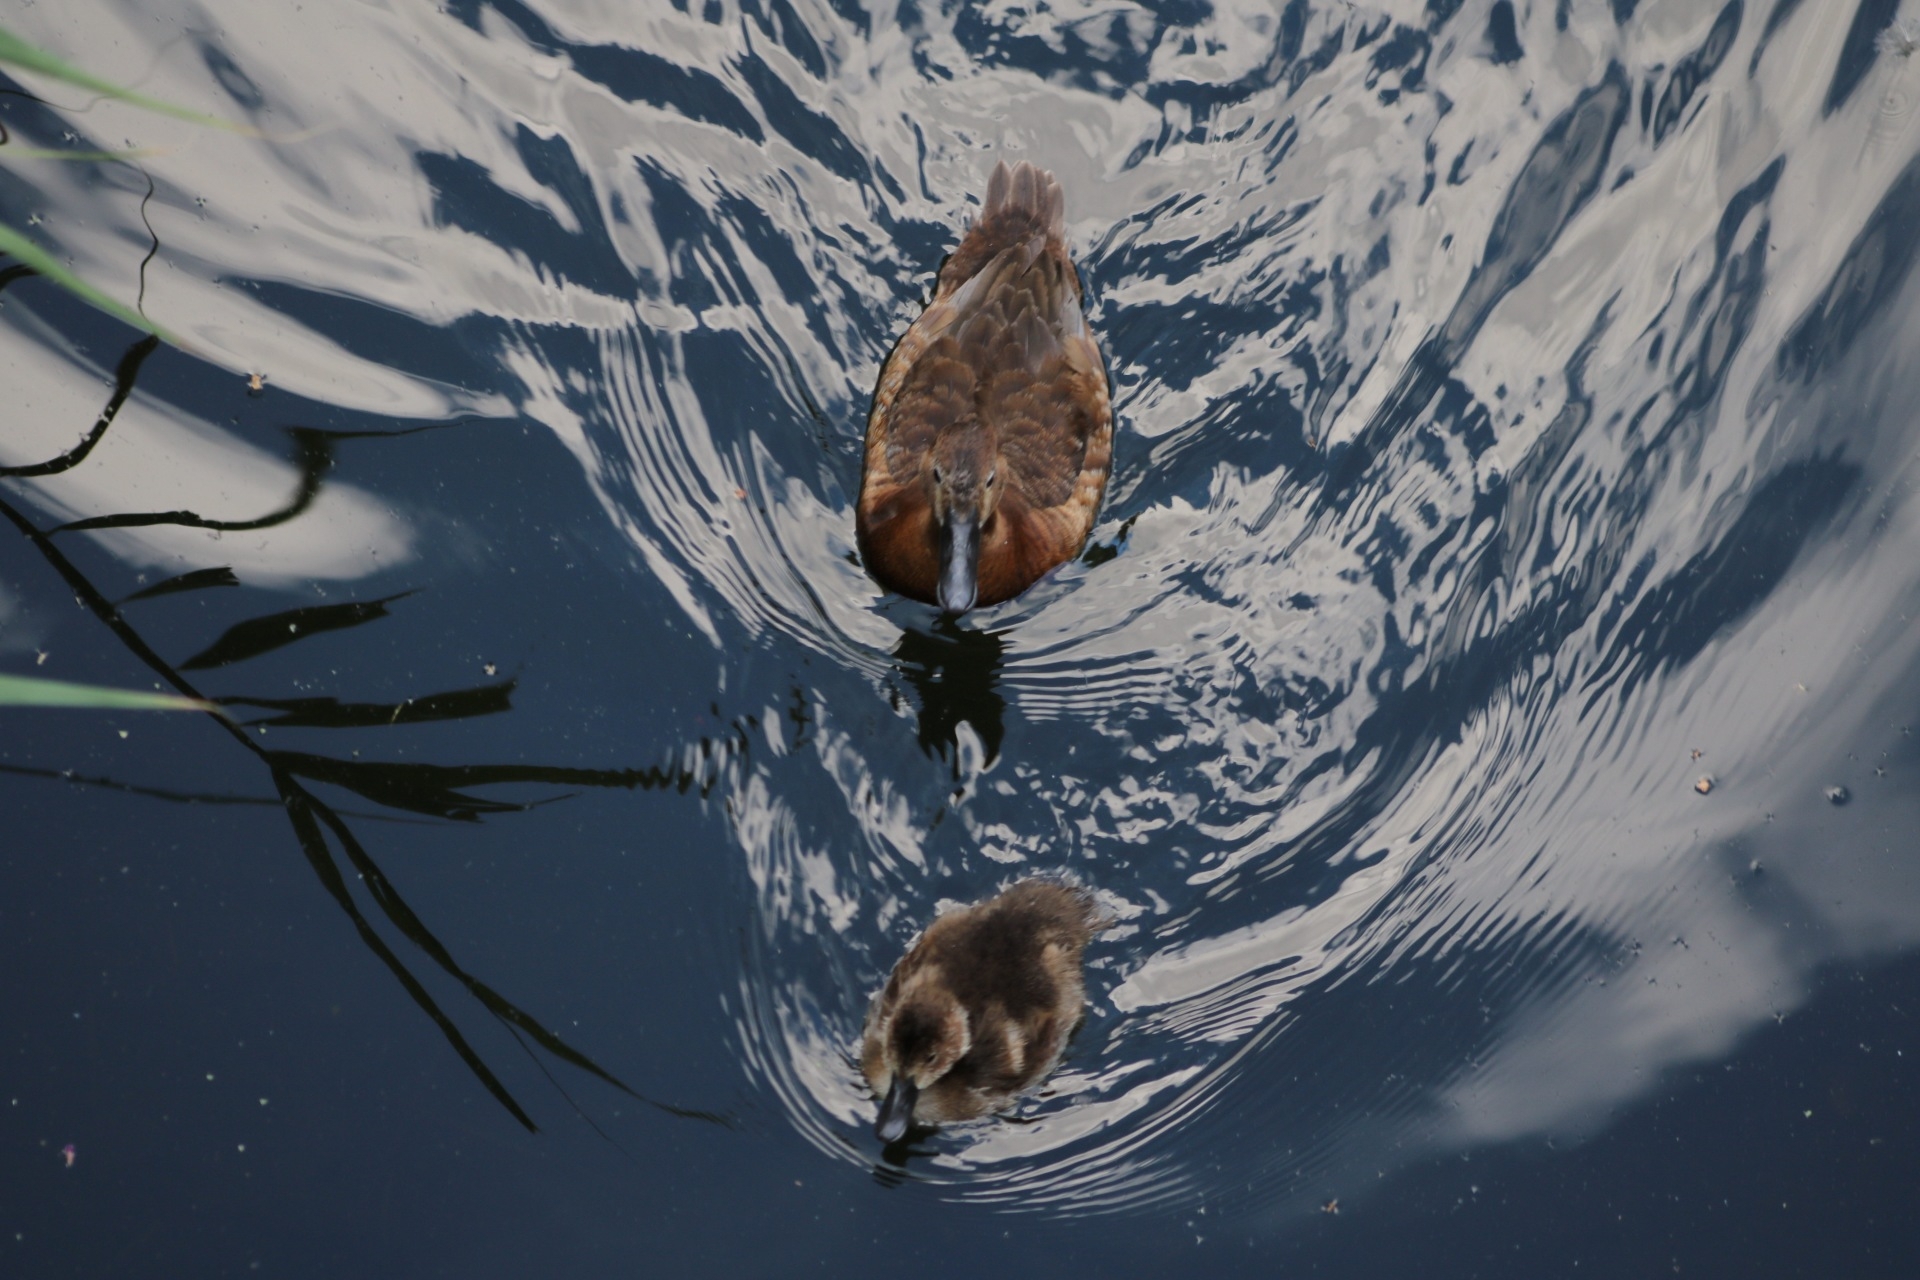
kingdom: Animalia
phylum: Chordata
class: Aves
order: Anseriformes
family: Anatidae
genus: Aythya
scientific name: Aythya ferina
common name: Common pochard
